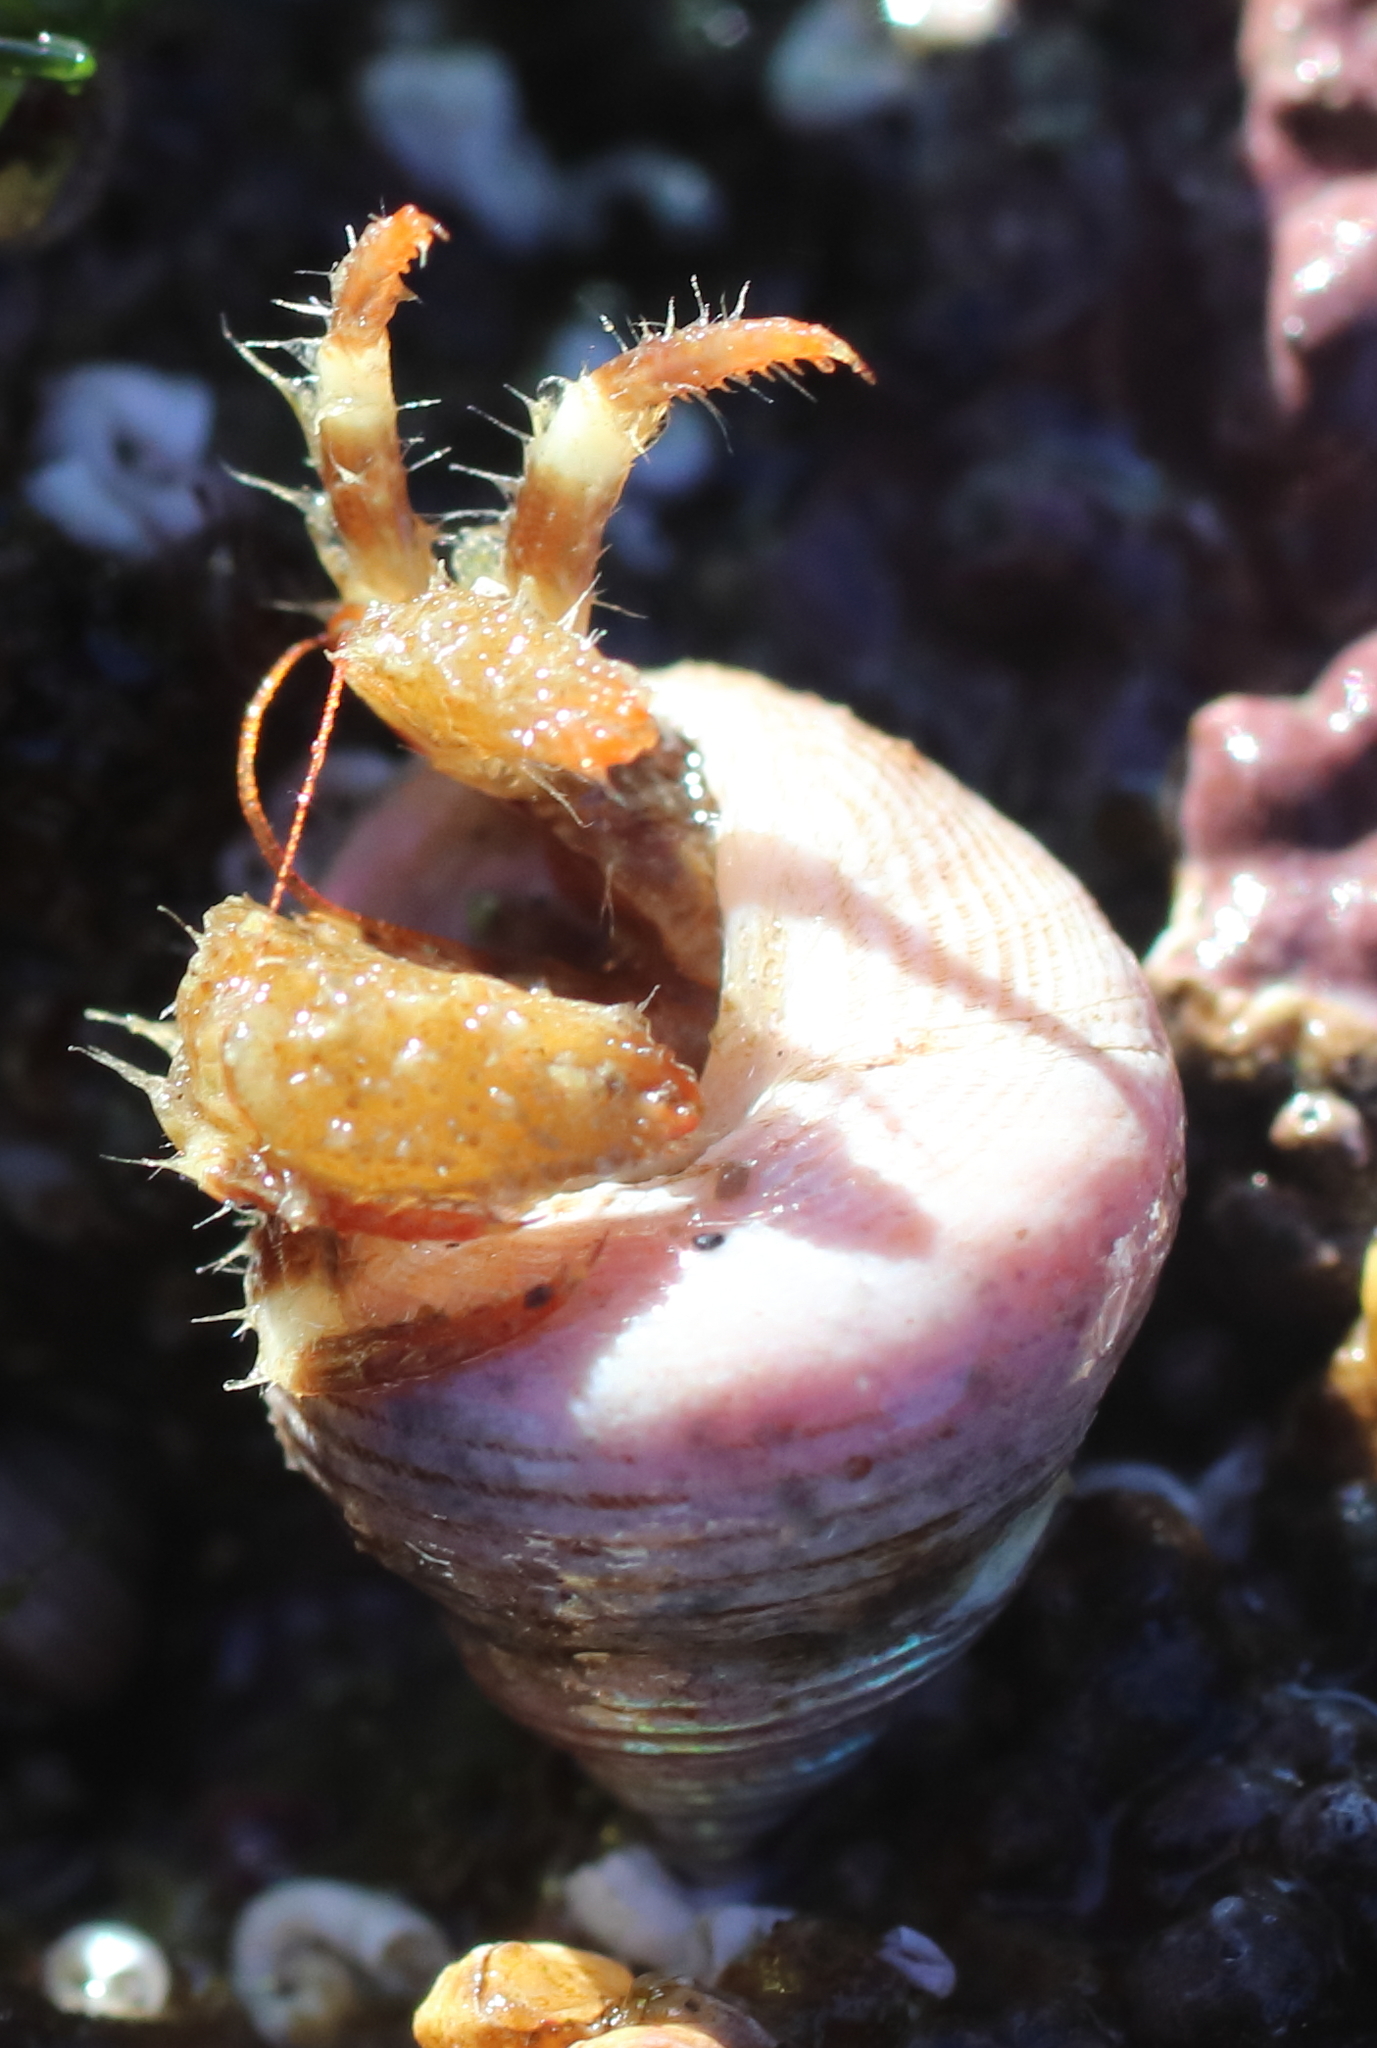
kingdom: Animalia
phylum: Arthropoda
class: Malacostraca
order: Decapoda
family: Paguridae
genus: Pagurus
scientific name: Pagurus caurinus
